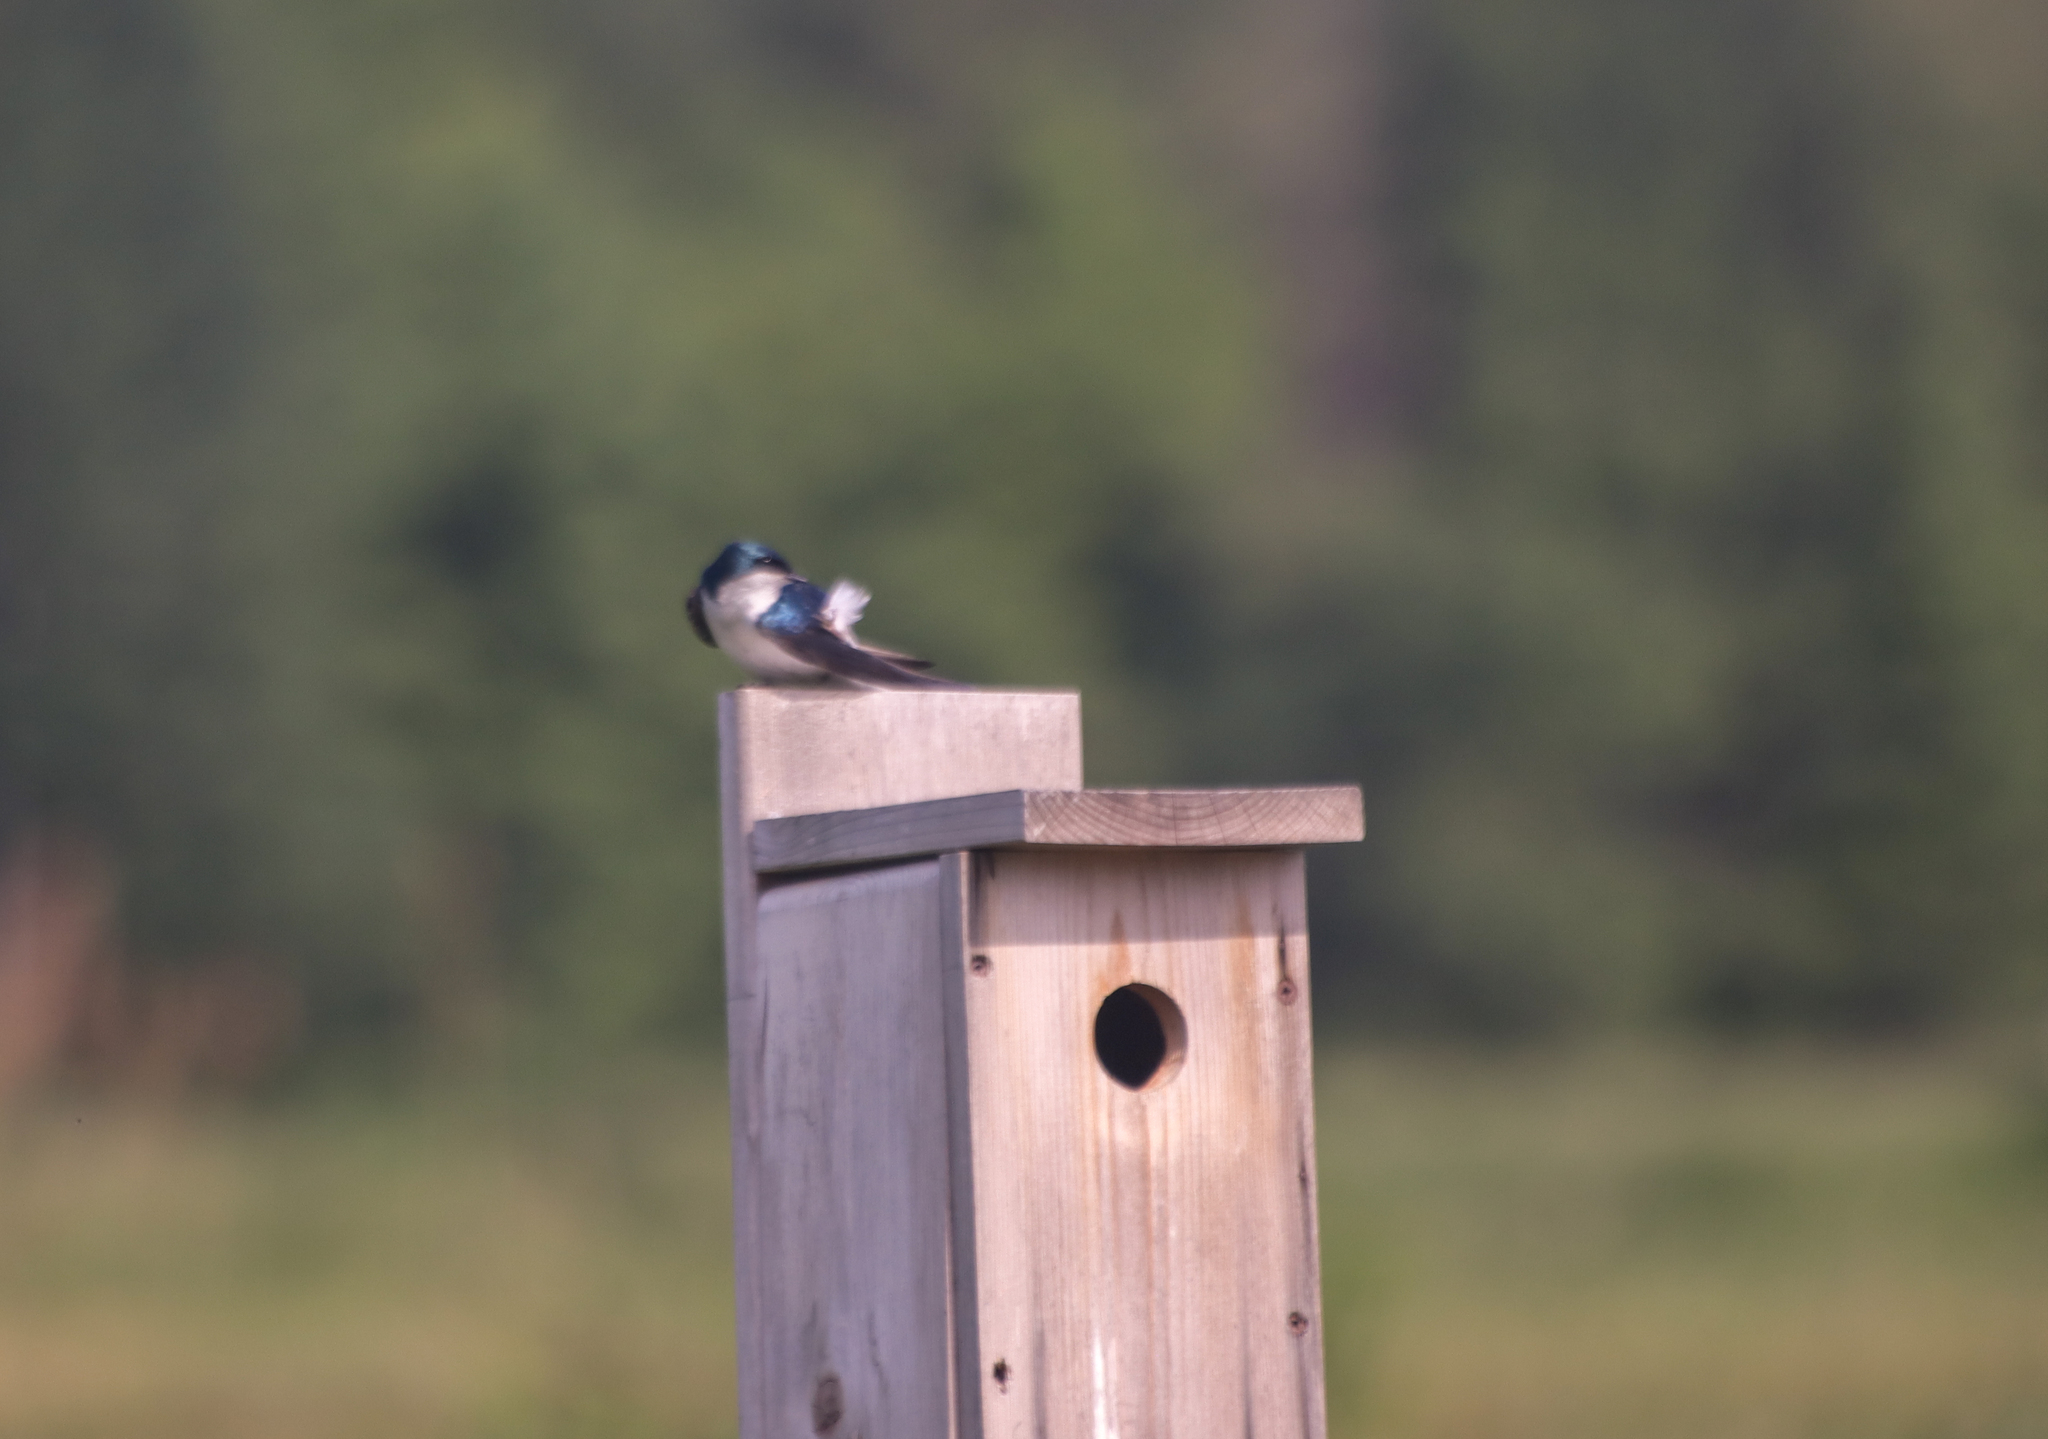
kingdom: Animalia
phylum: Chordata
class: Aves
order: Passeriformes
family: Hirundinidae
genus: Tachycineta
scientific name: Tachycineta bicolor
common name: Tree swallow
